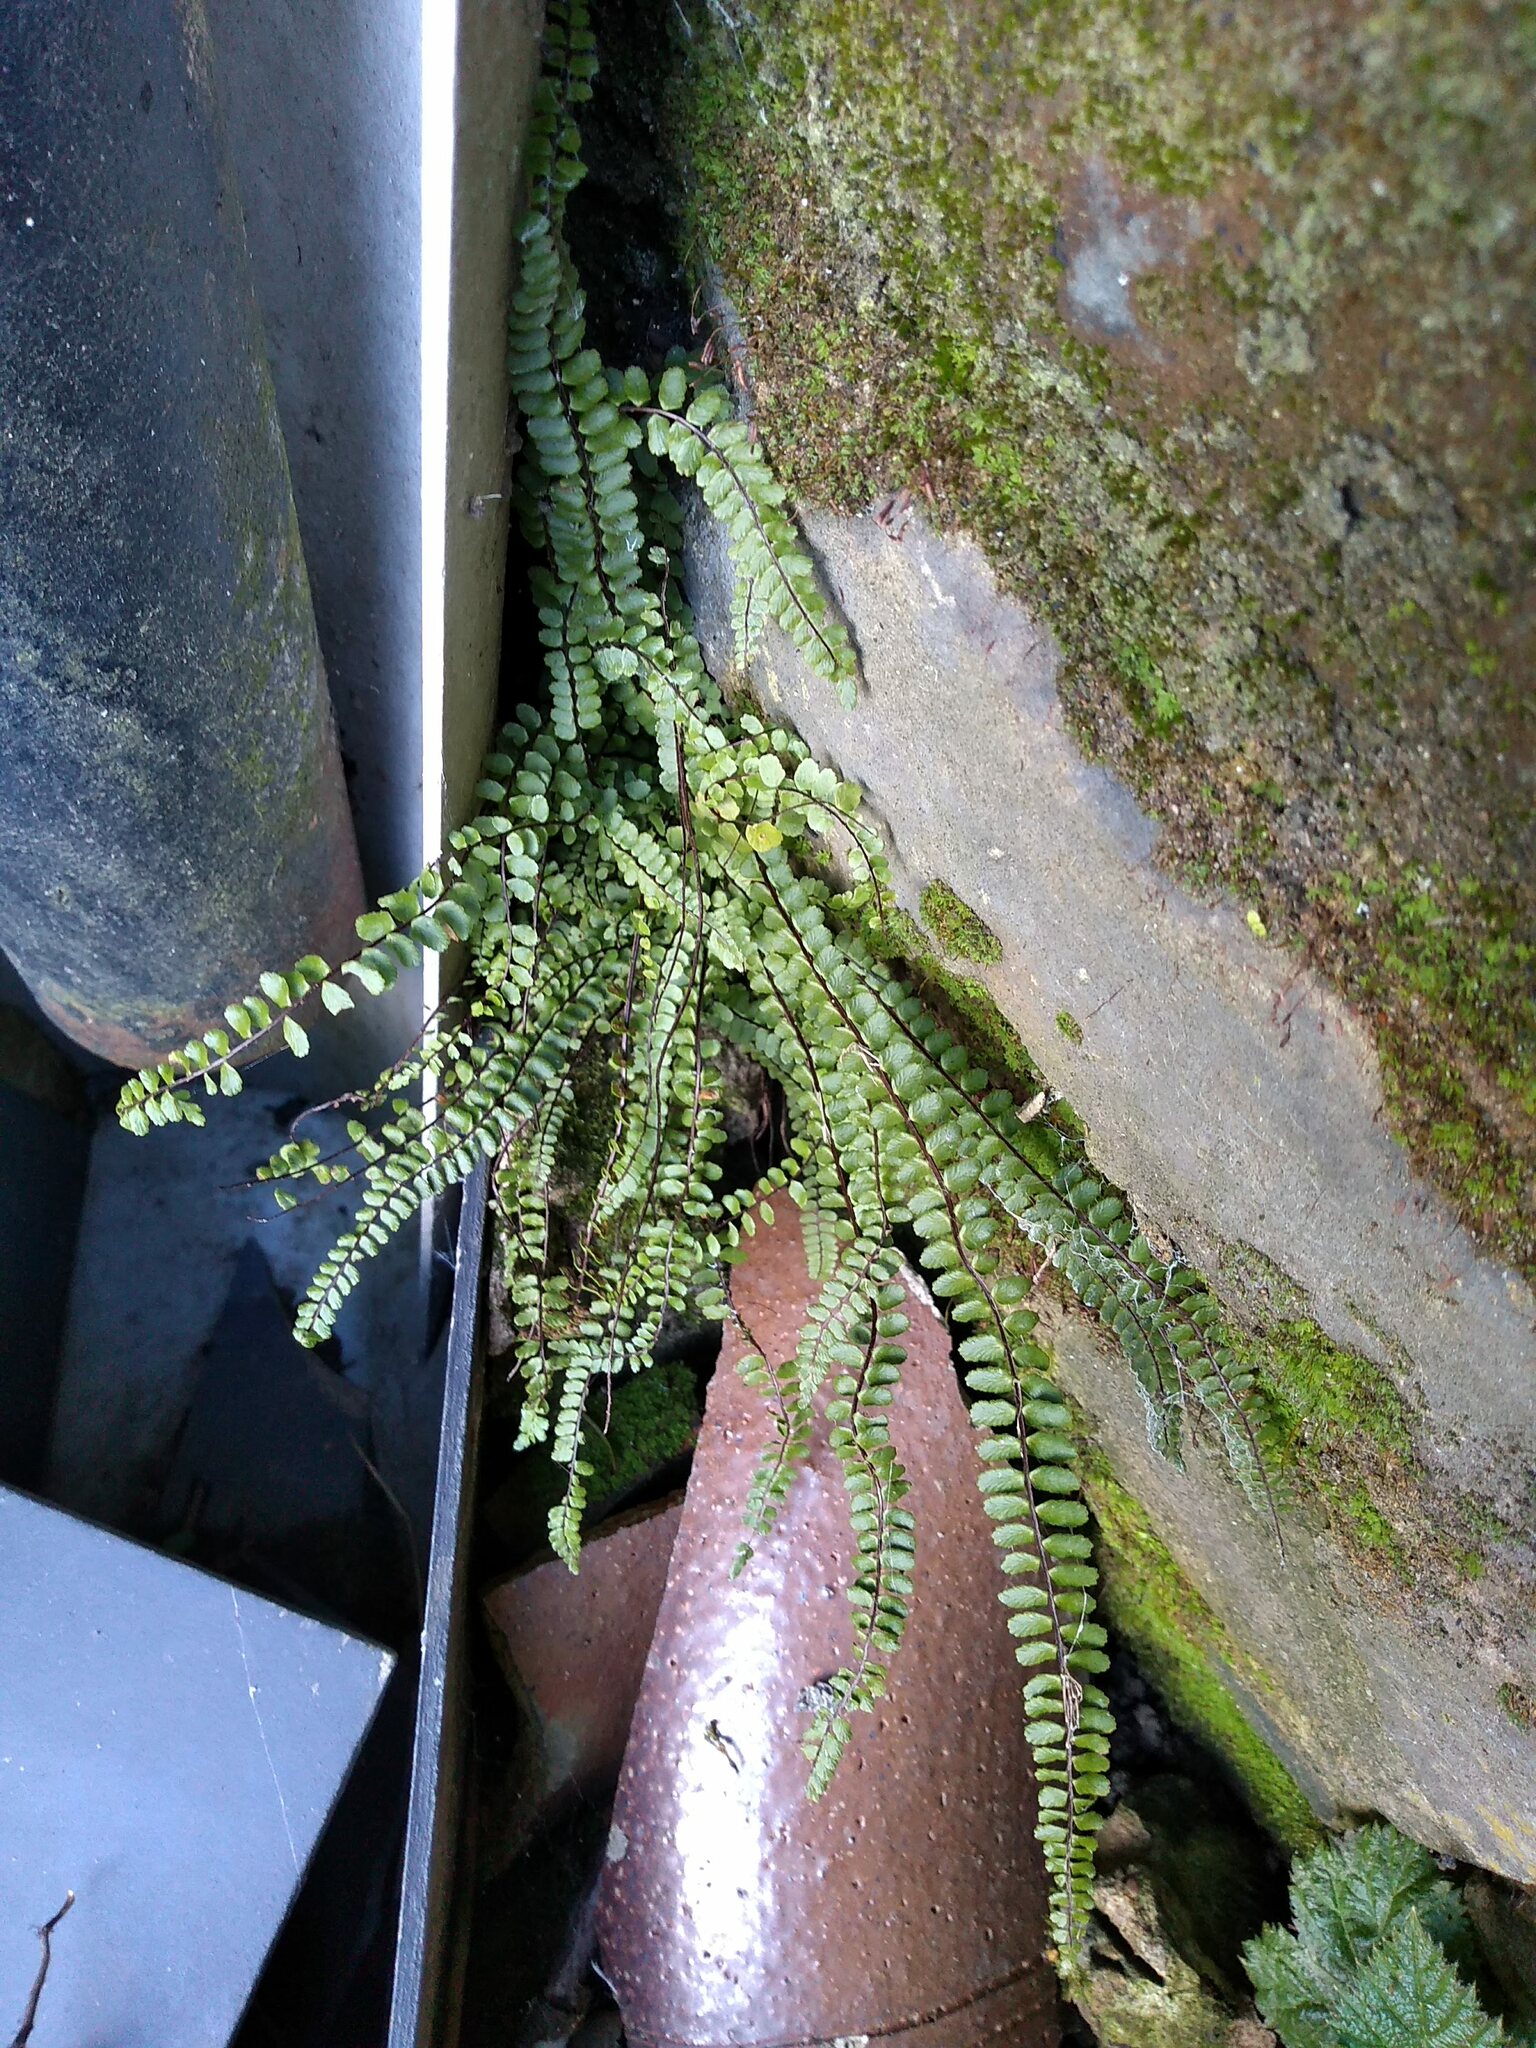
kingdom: Plantae
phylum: Tracheophyta
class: Polypodiopsida
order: Polypodiales
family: Aspleniaceae
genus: Asplenium
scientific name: Asplenium trichomanes
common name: Maidenhair spleenwort
